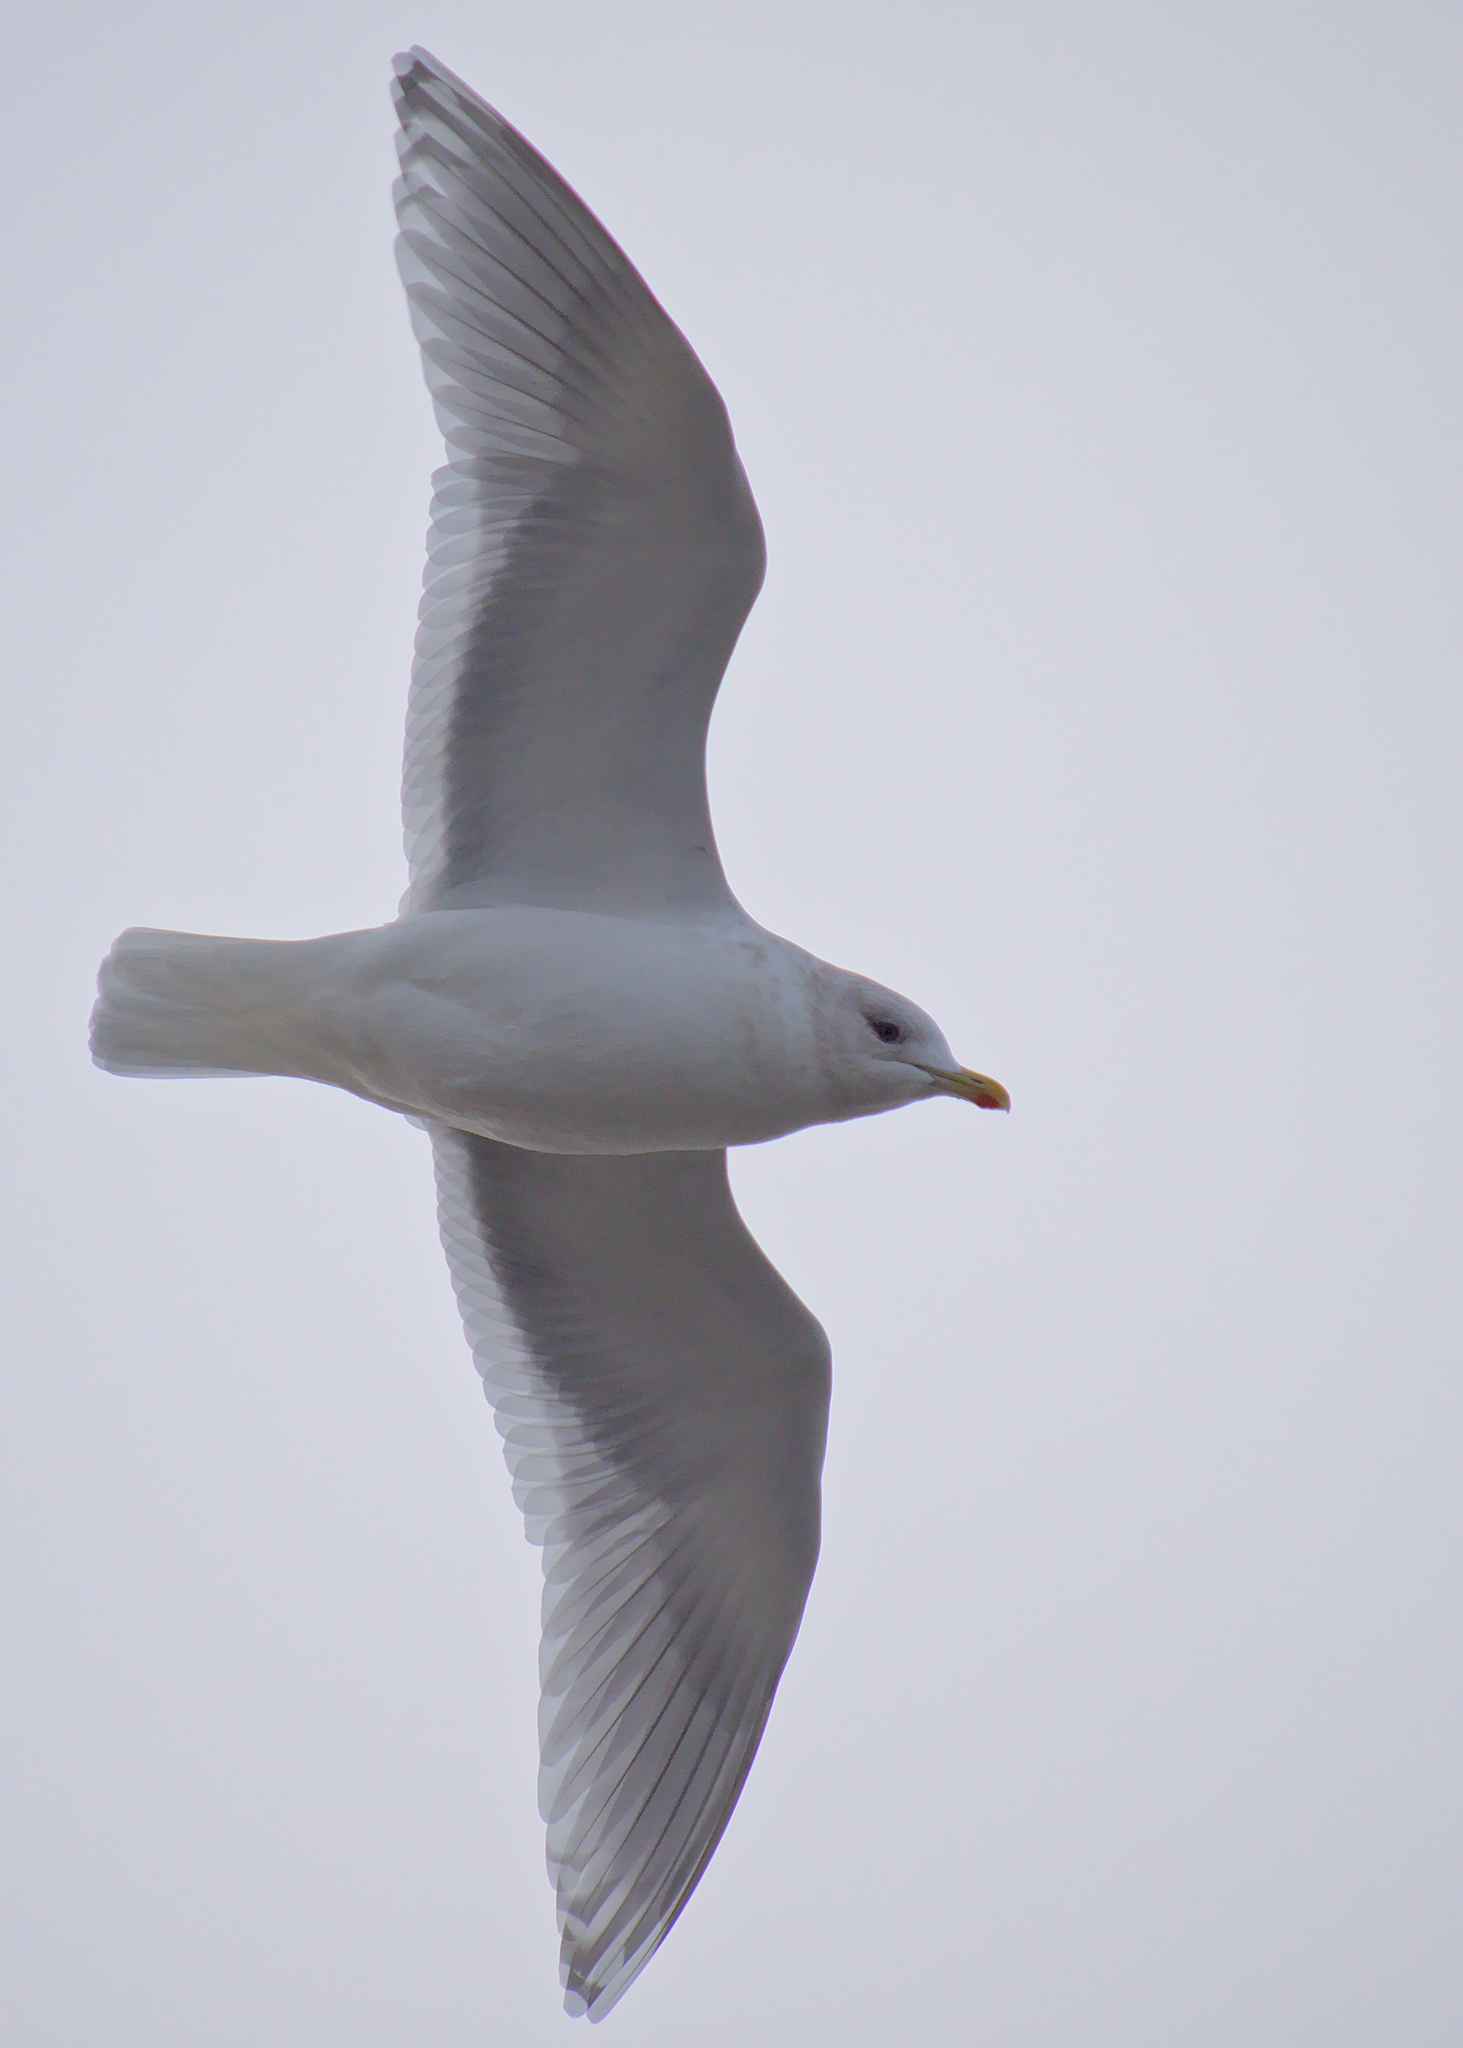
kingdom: Animalia
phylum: Chordata
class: Aves
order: Charadriiformes
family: Laridae
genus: Larus
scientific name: Larus glaucoides
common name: Iceland gull
